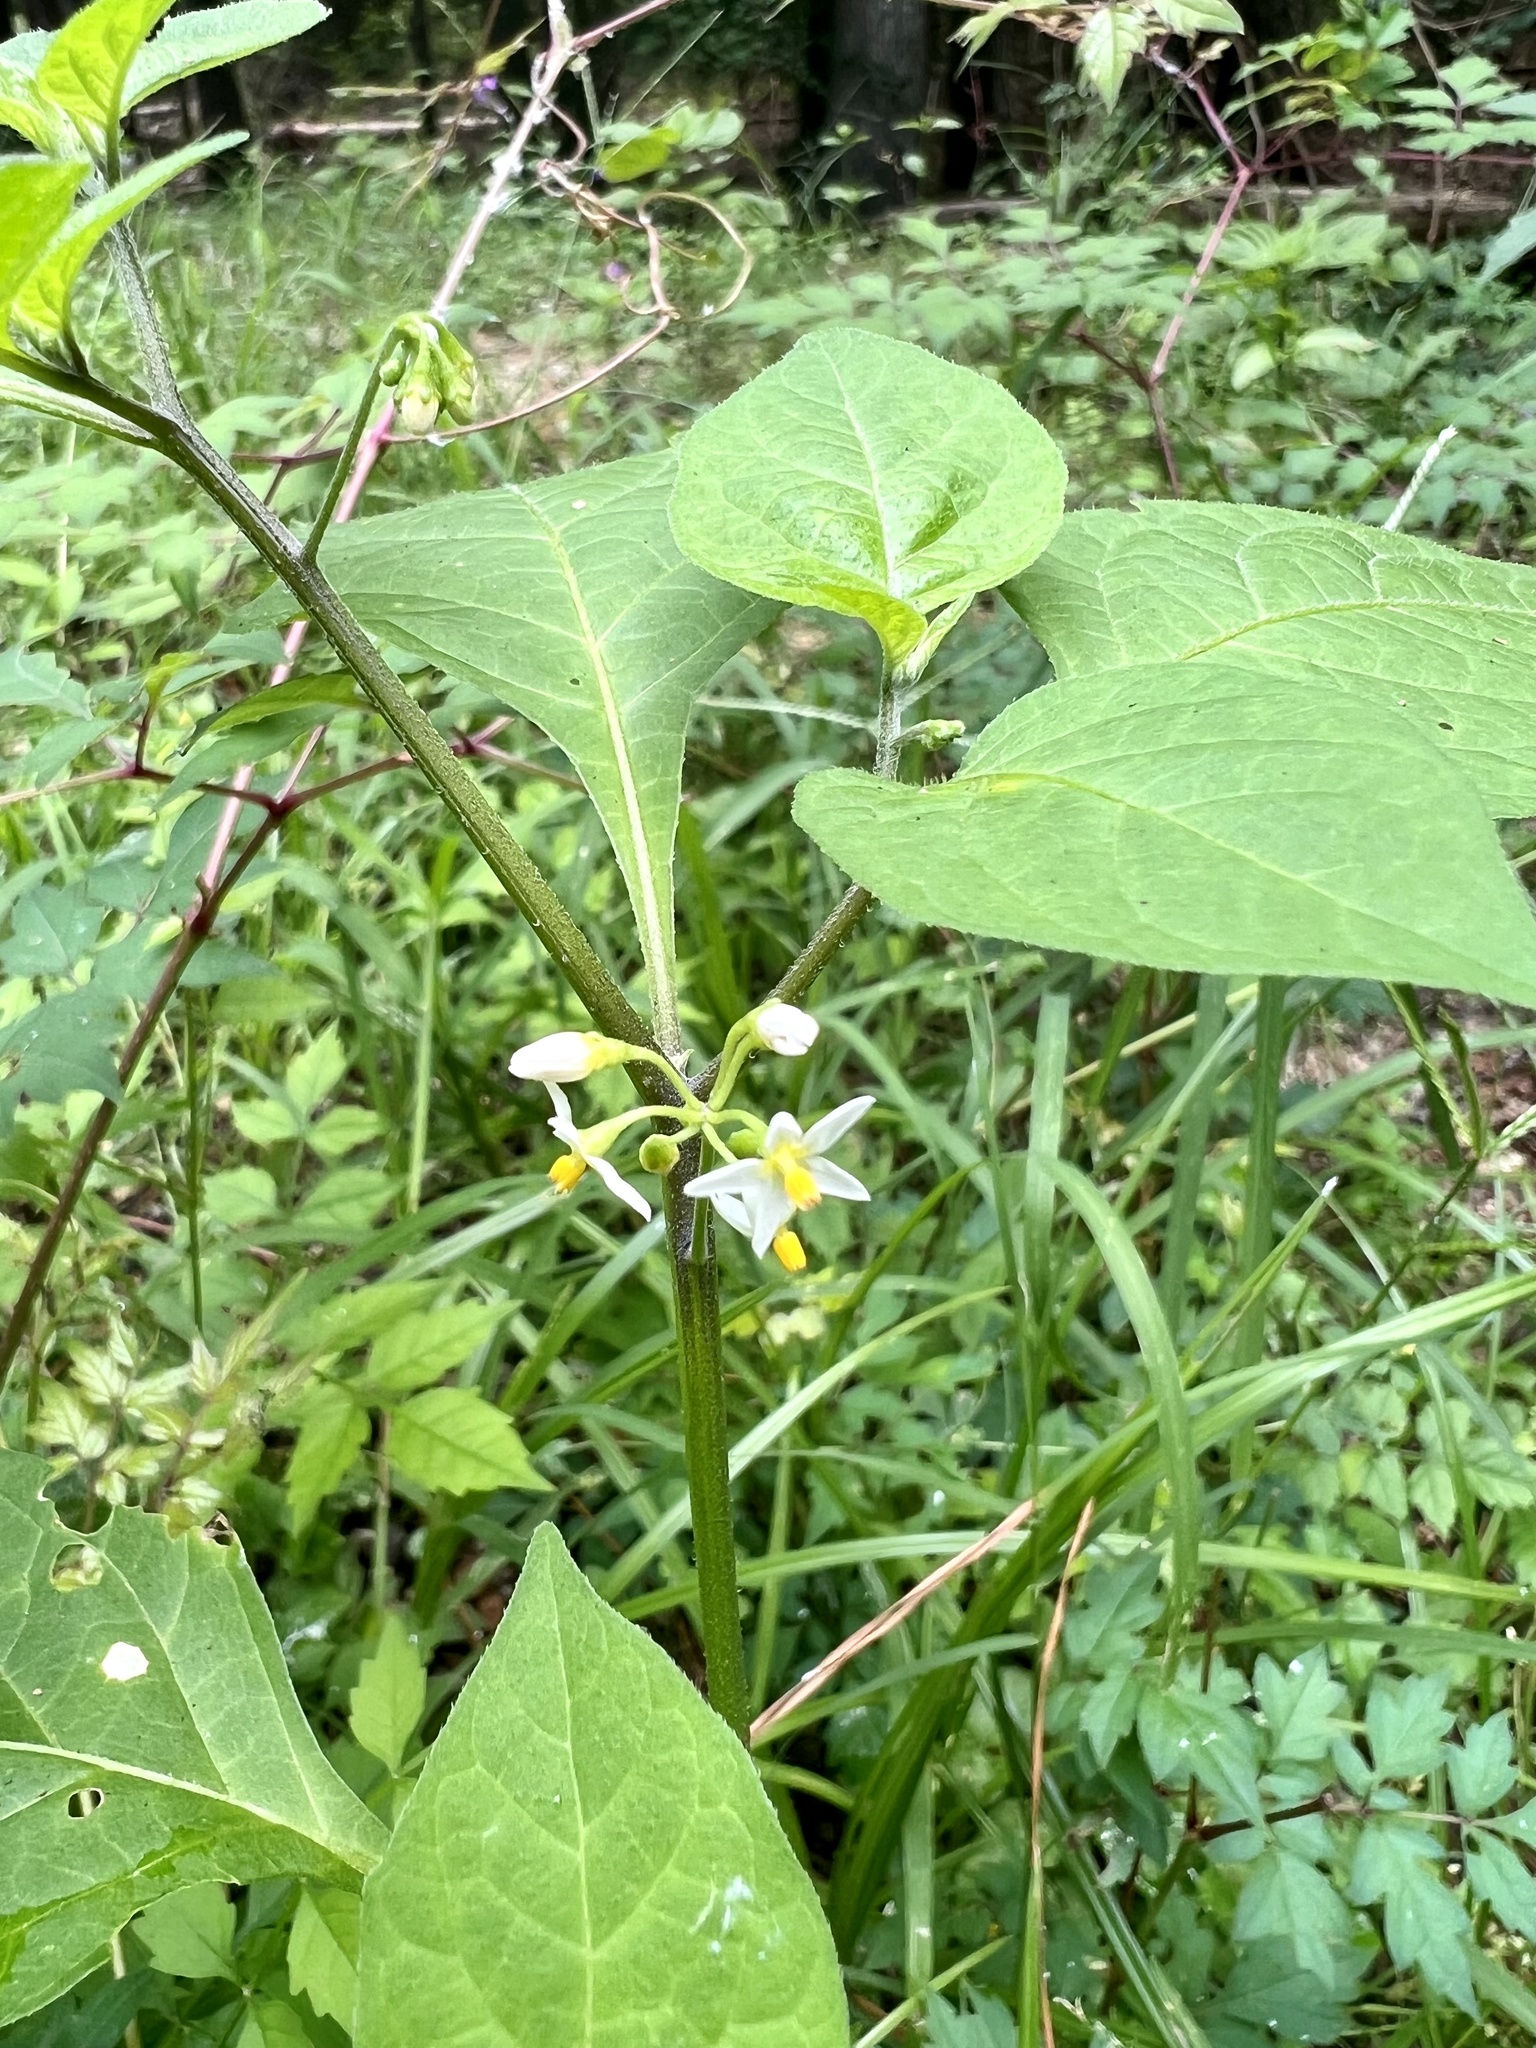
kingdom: Plantae
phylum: Tracheophyta
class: Magnoliopsida
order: Solanales
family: Solanaceae
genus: Solanum
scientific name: Solanum emulans
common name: Eastern black nightshade
